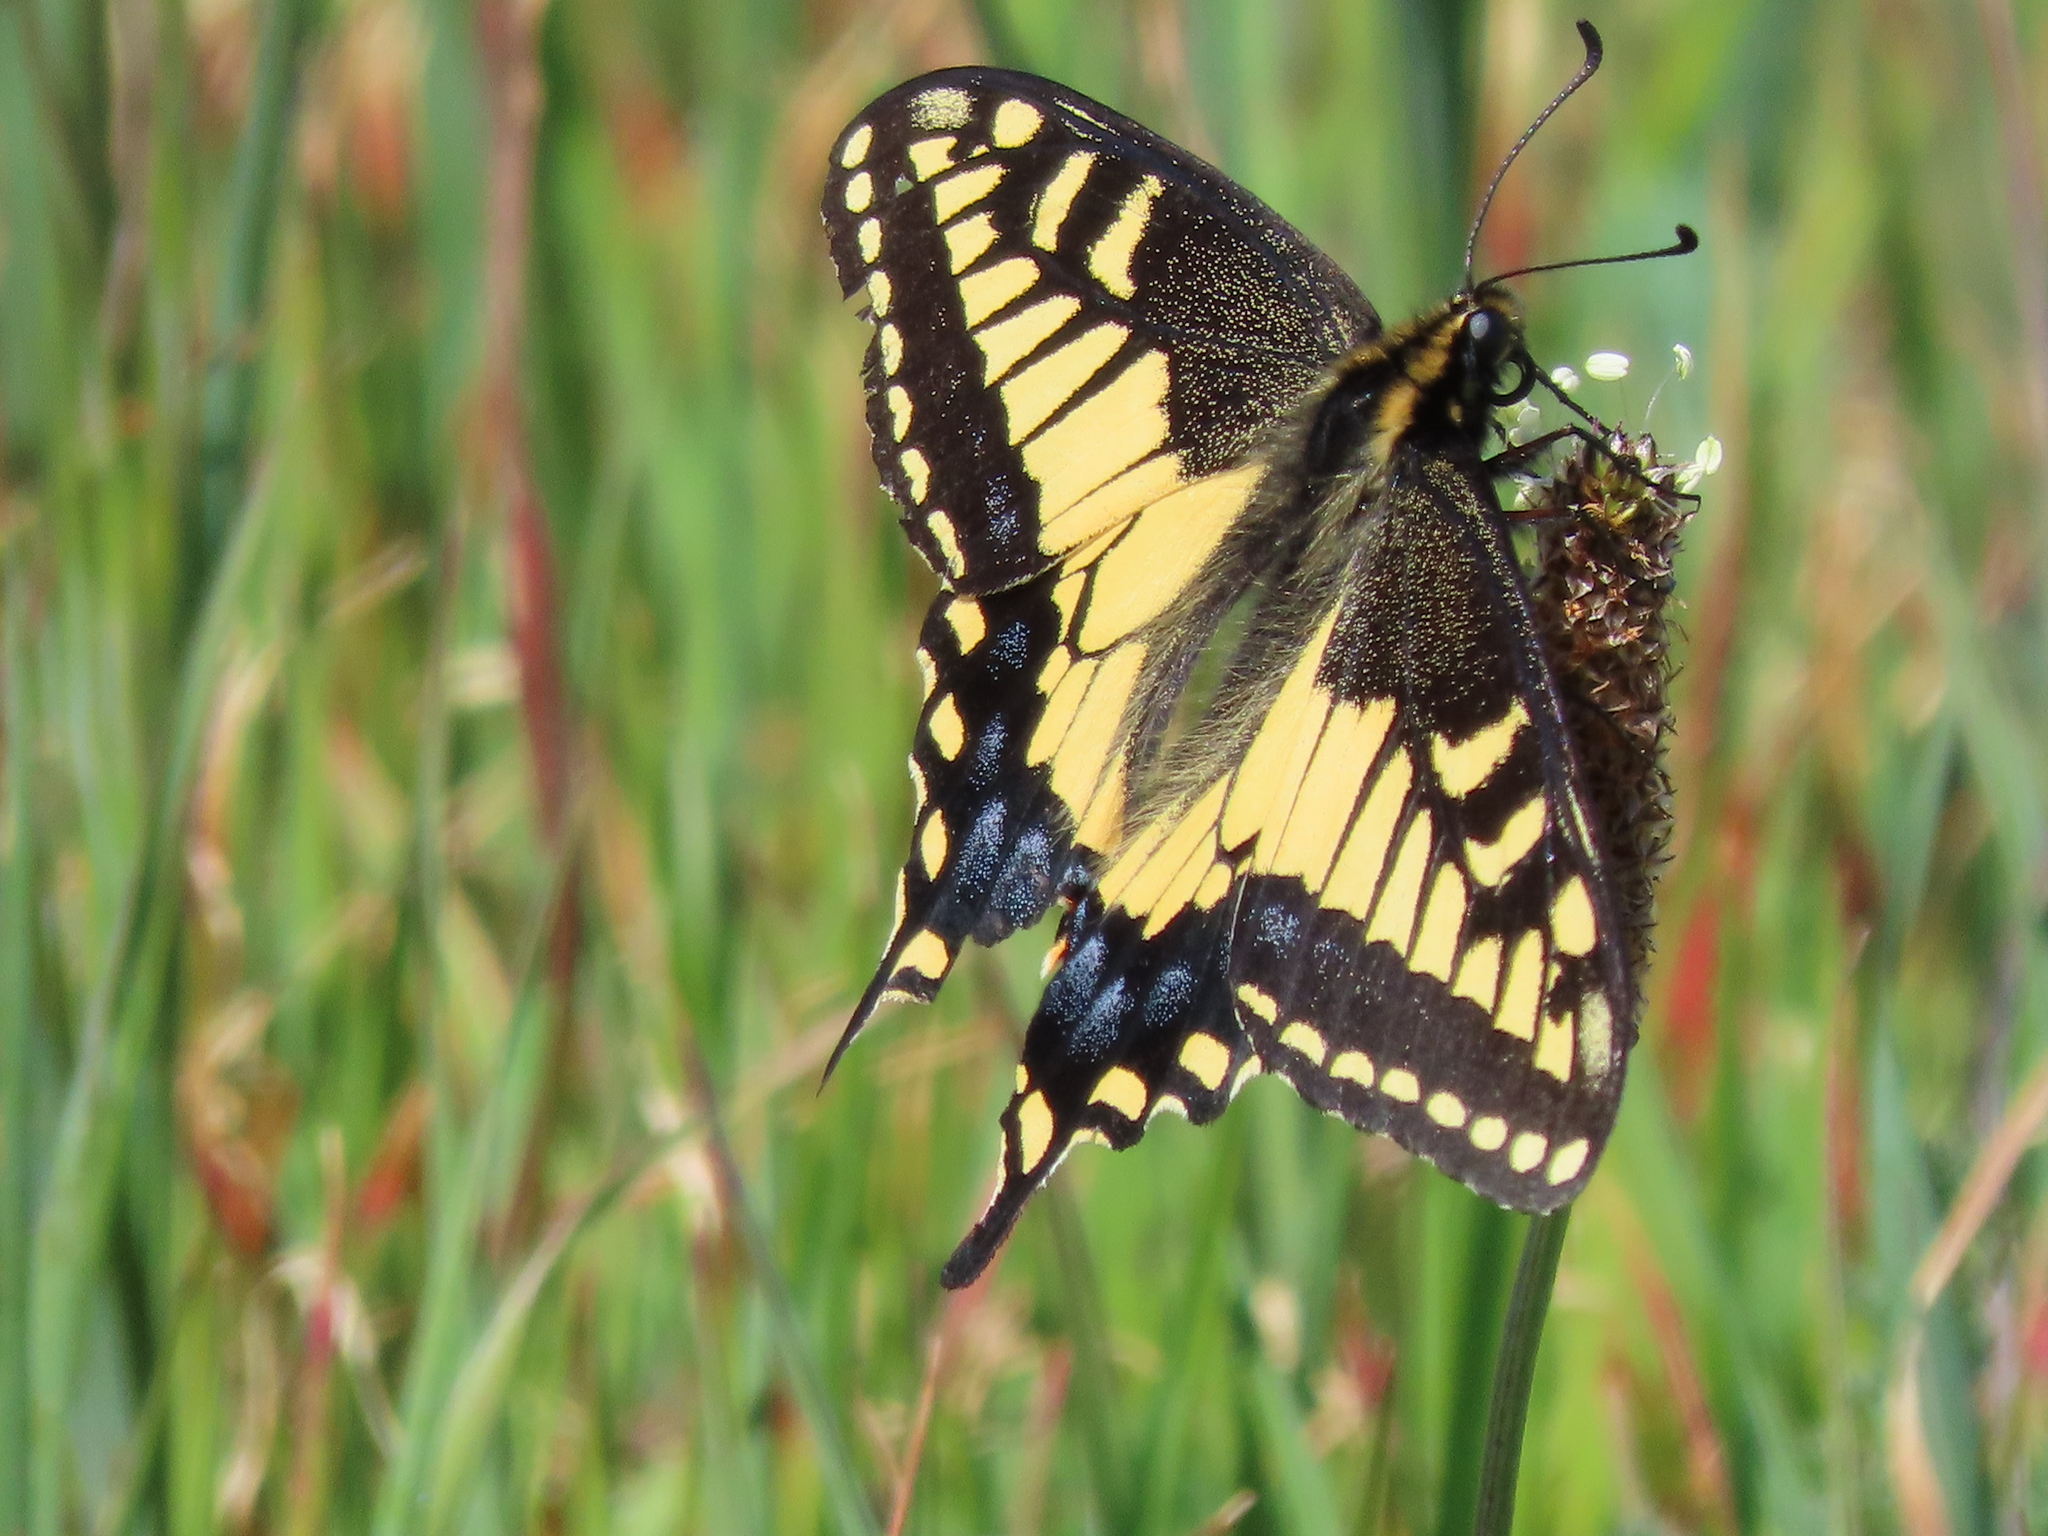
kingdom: Animalia
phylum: Arthropoda
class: Insecta
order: Lepidoptera
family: Papilionidae
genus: Papilio
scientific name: Papilio zelicaon
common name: Anise swallowtail
